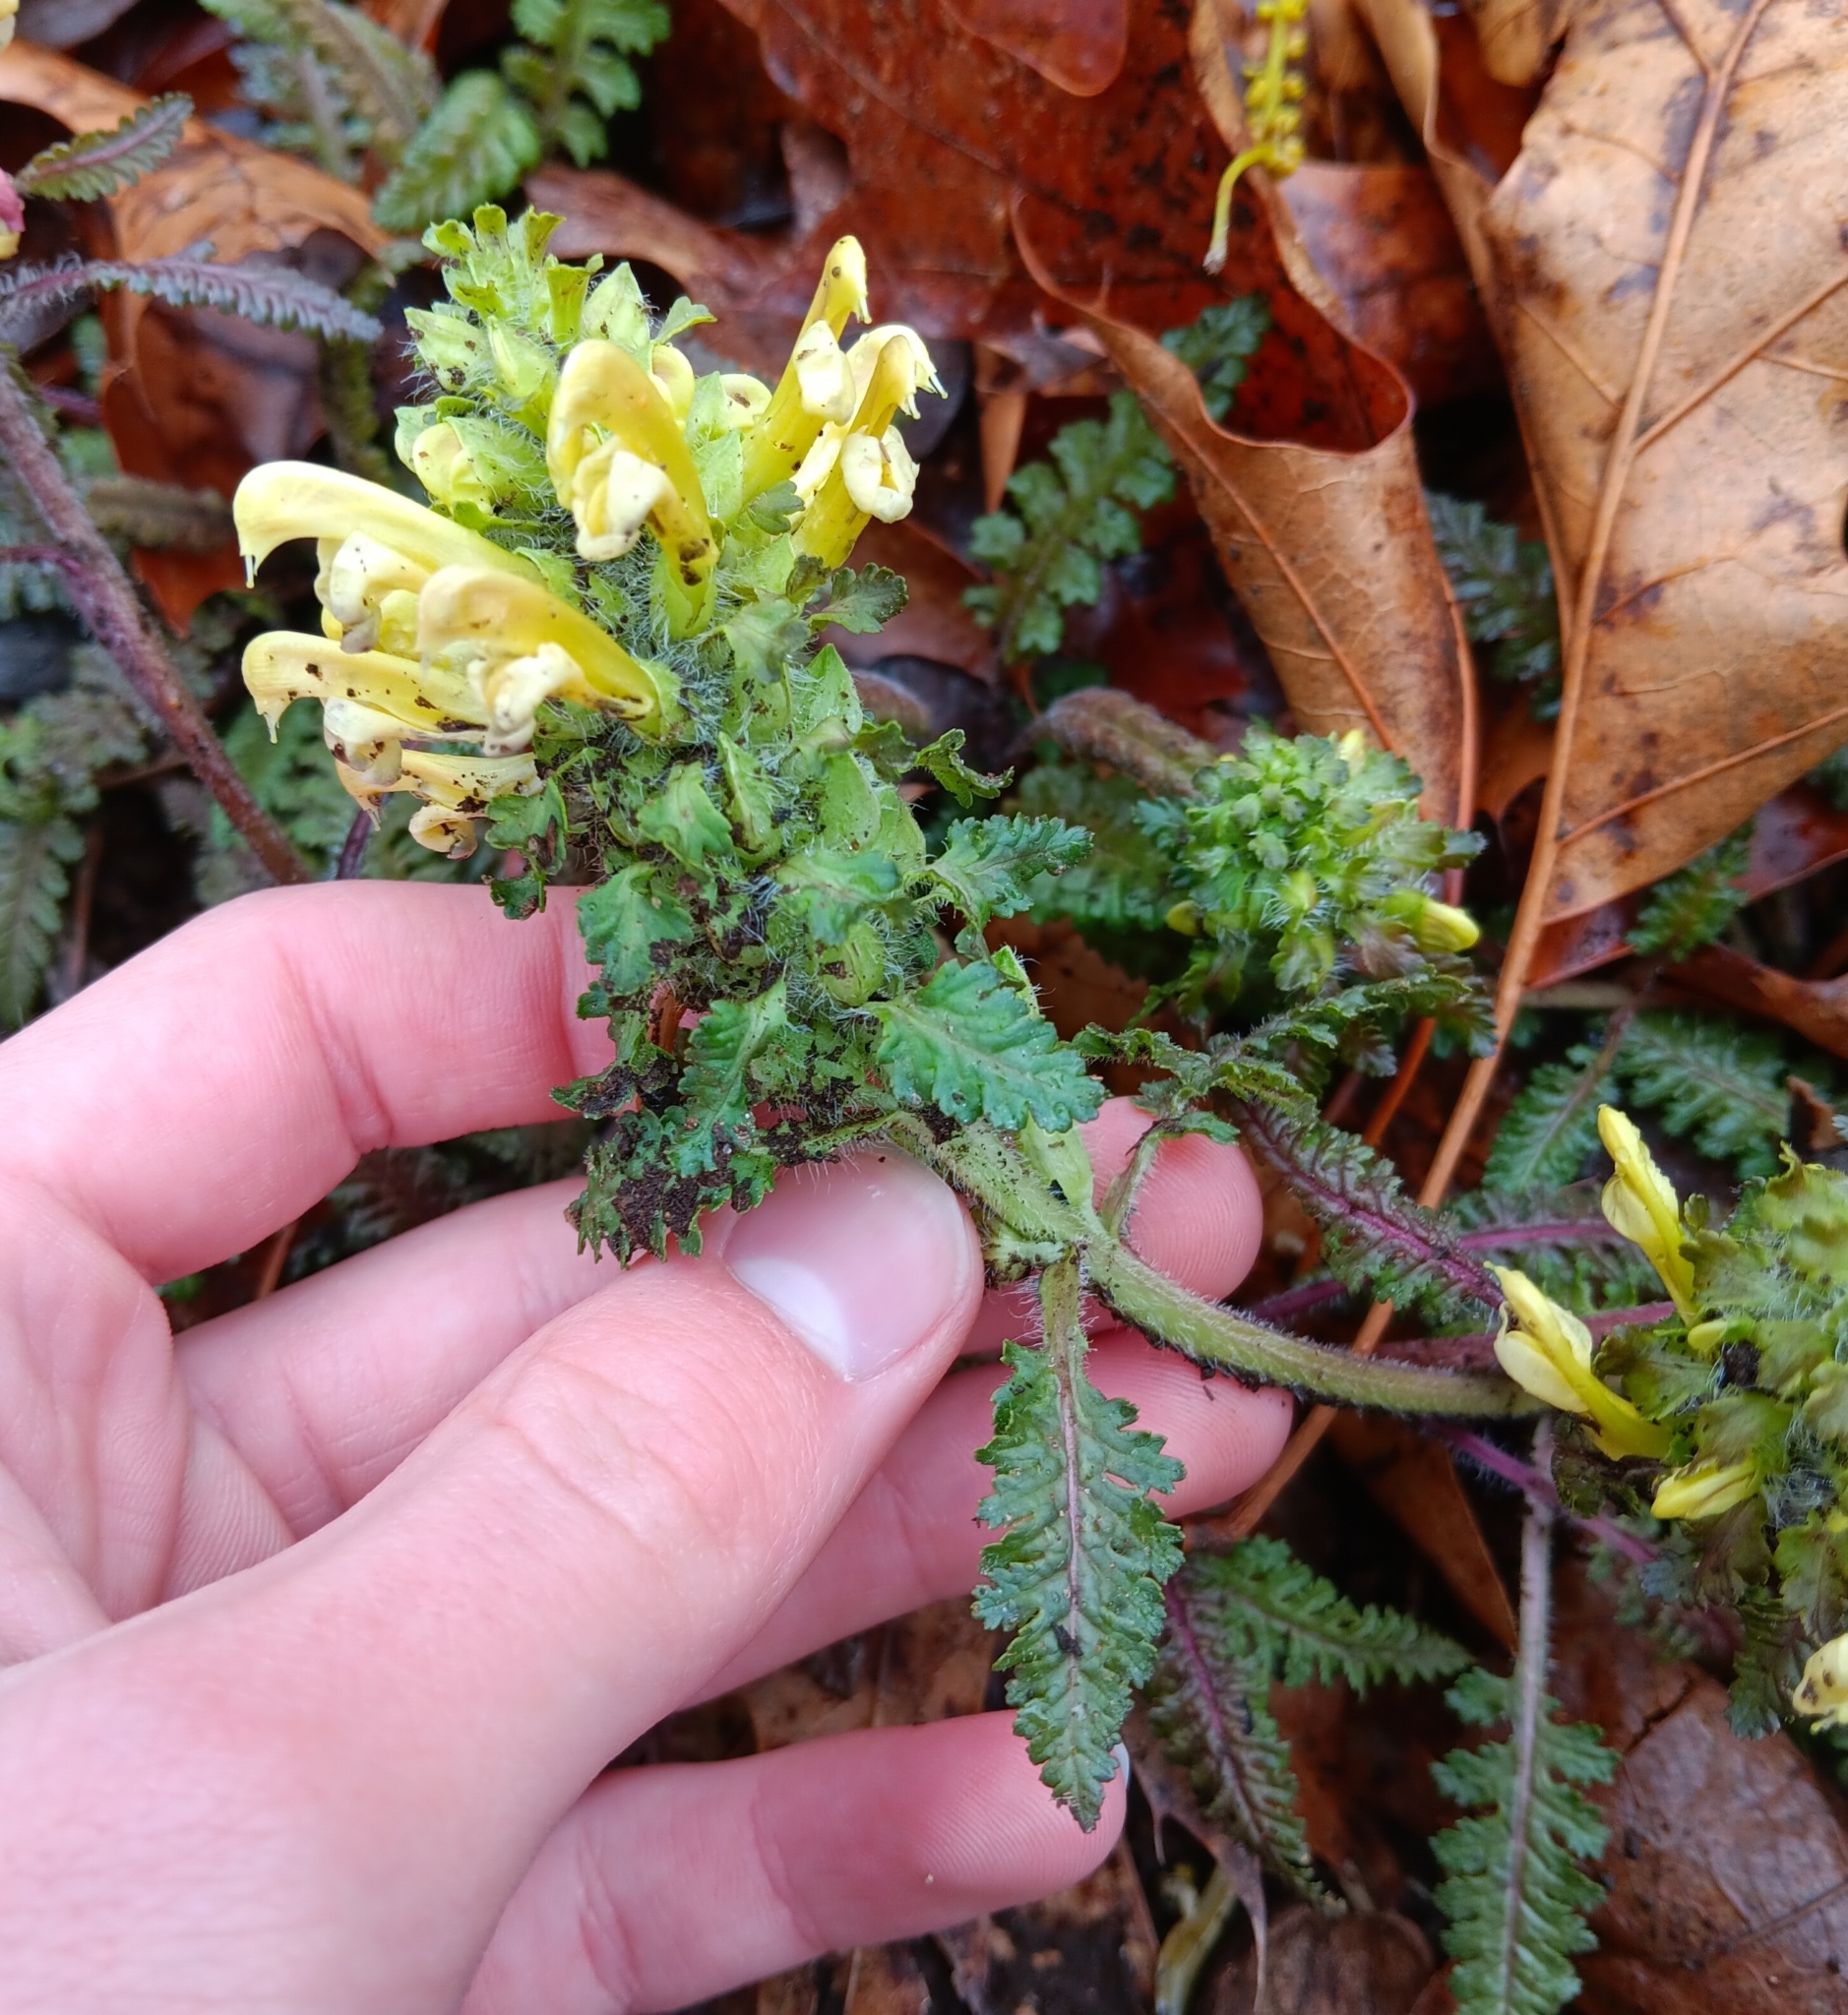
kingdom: Plantae
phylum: Tracheophyta
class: Magnoliopsida
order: Lamiales
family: Orobanchaceae
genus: Pedicularis
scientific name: Pedicularis canadensis
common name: Early lousewort
